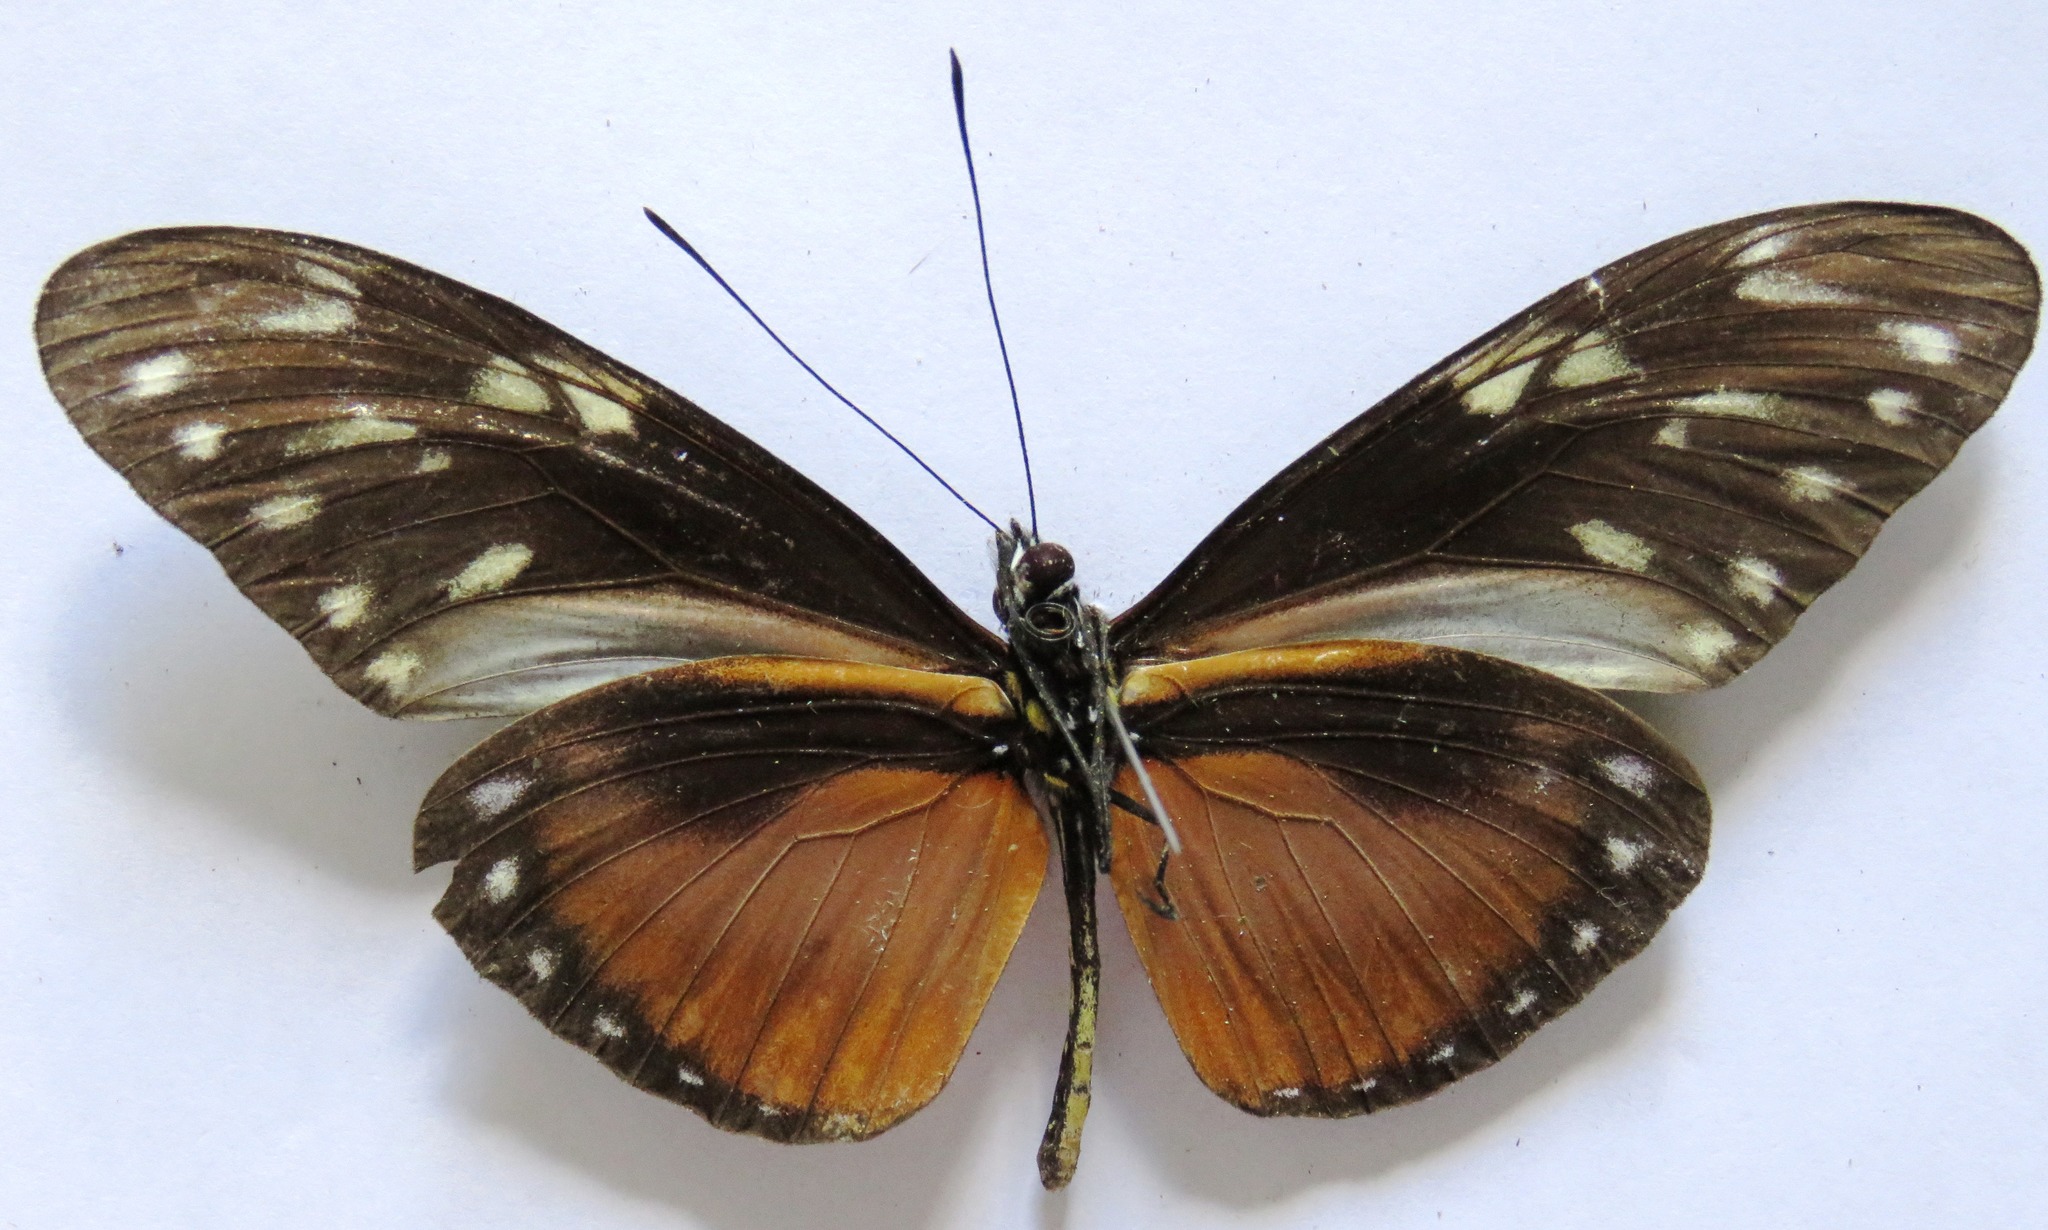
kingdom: Animalia
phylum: Arthropoda
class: Insecta
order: Lepidoptera
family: Nymphalidae
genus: Heliconius
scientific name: Heliconius hecalesia
